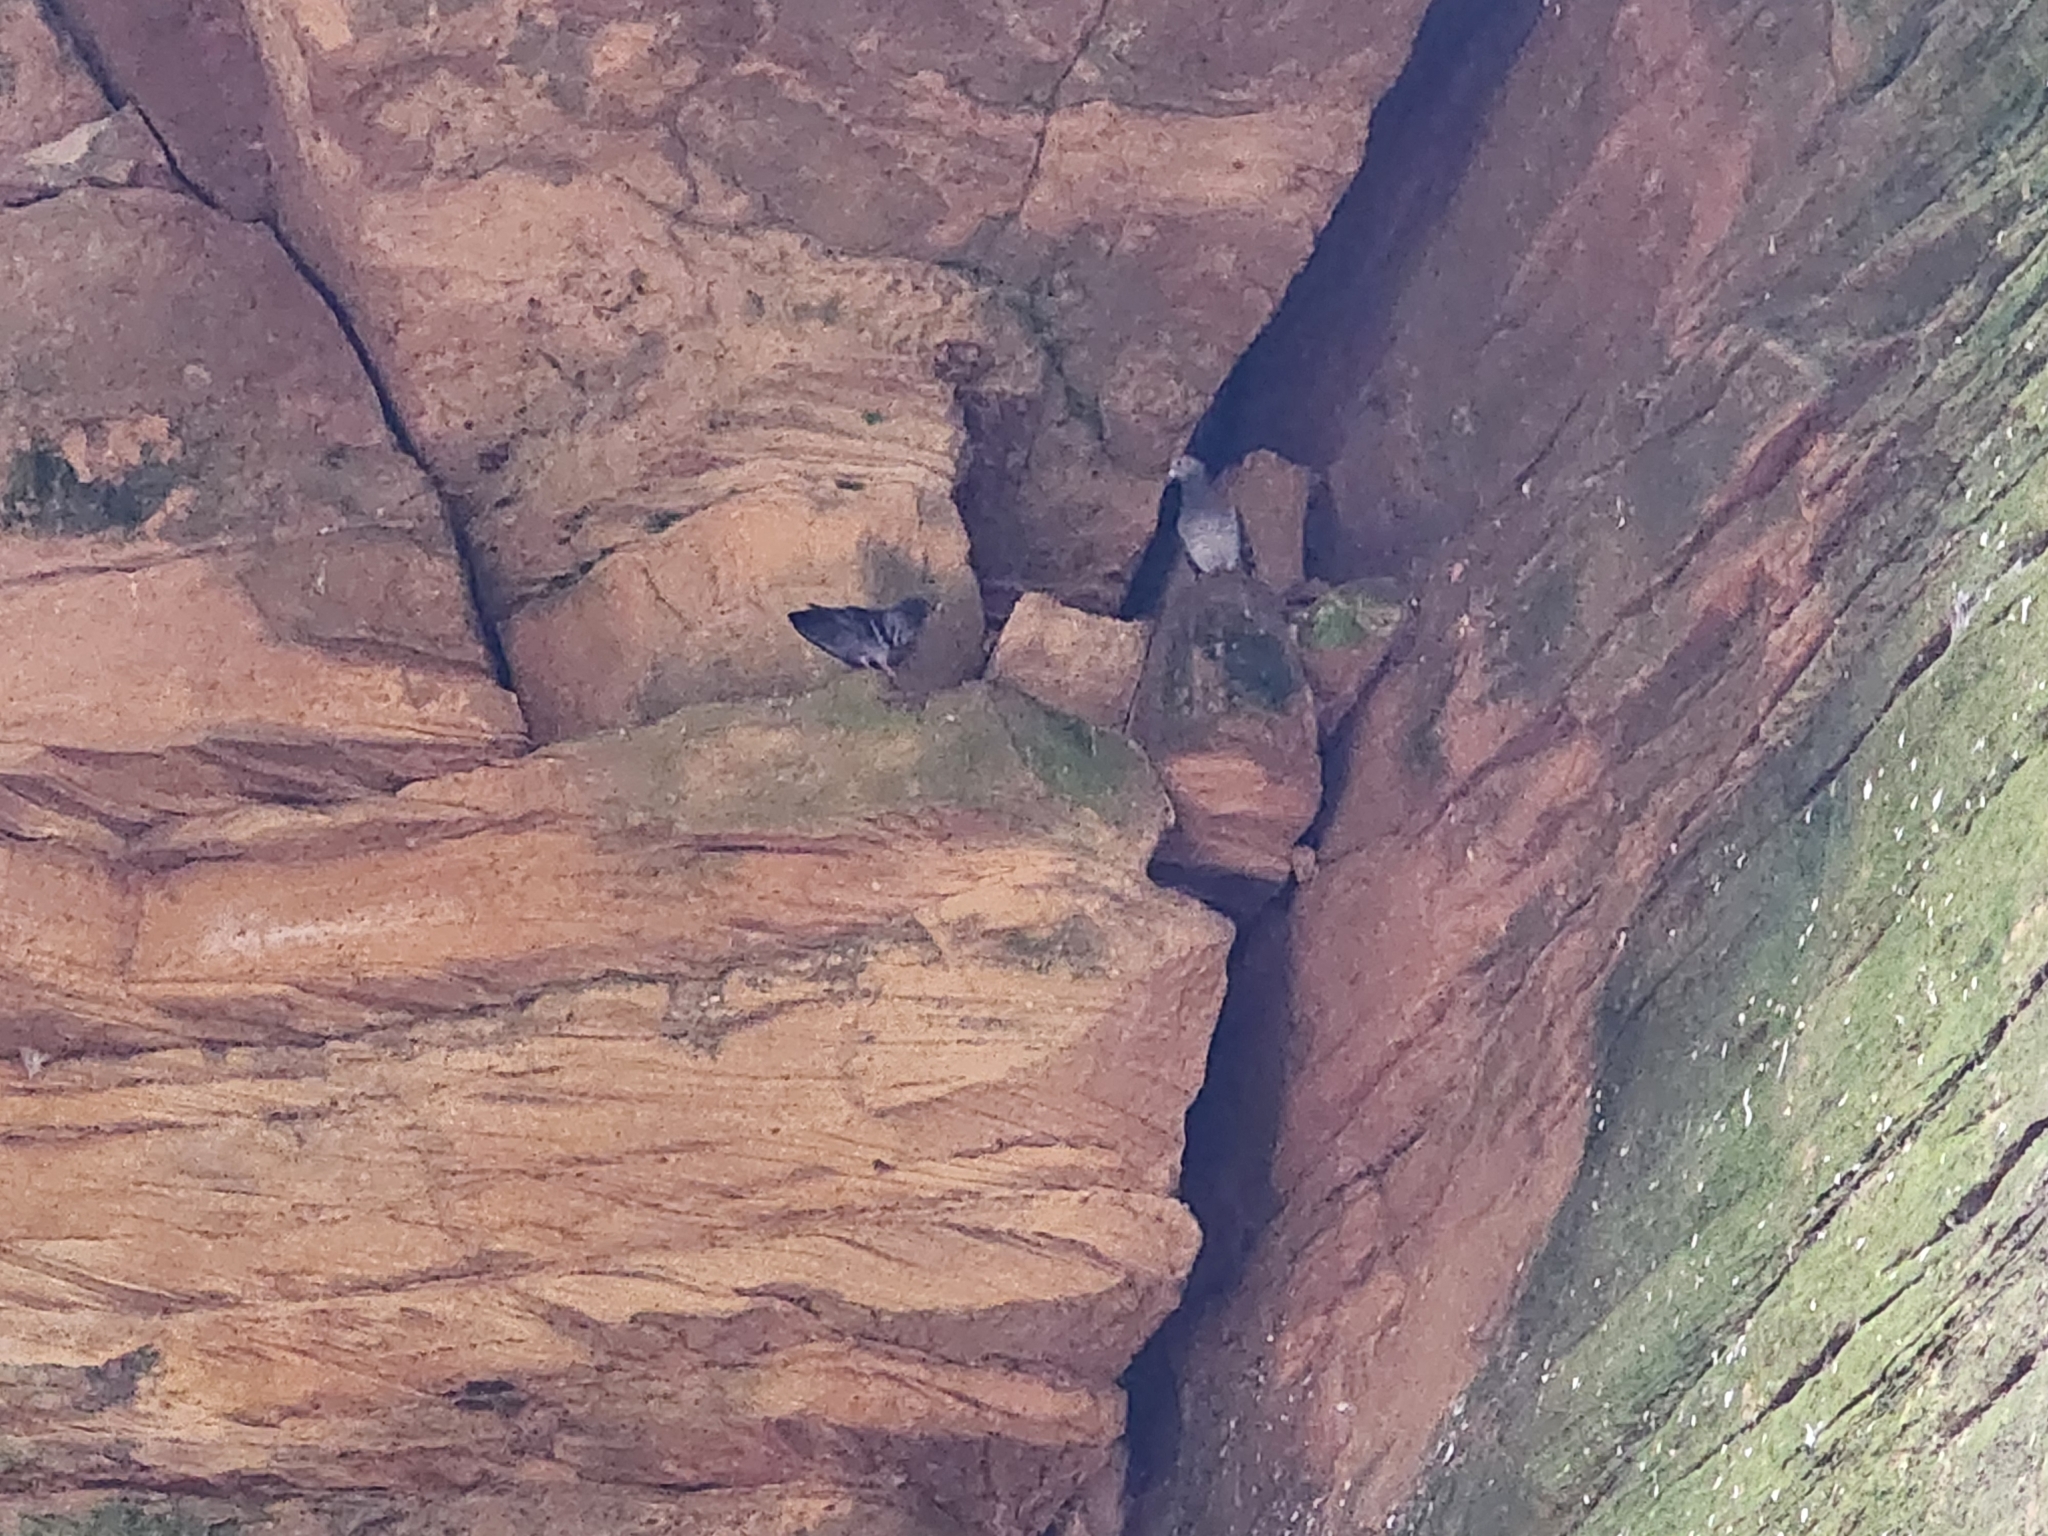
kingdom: Animalia
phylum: Chordata
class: Aves
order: Columbiformes
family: Columbidae
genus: Columba
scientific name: Columba livia
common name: Rock pigeon
